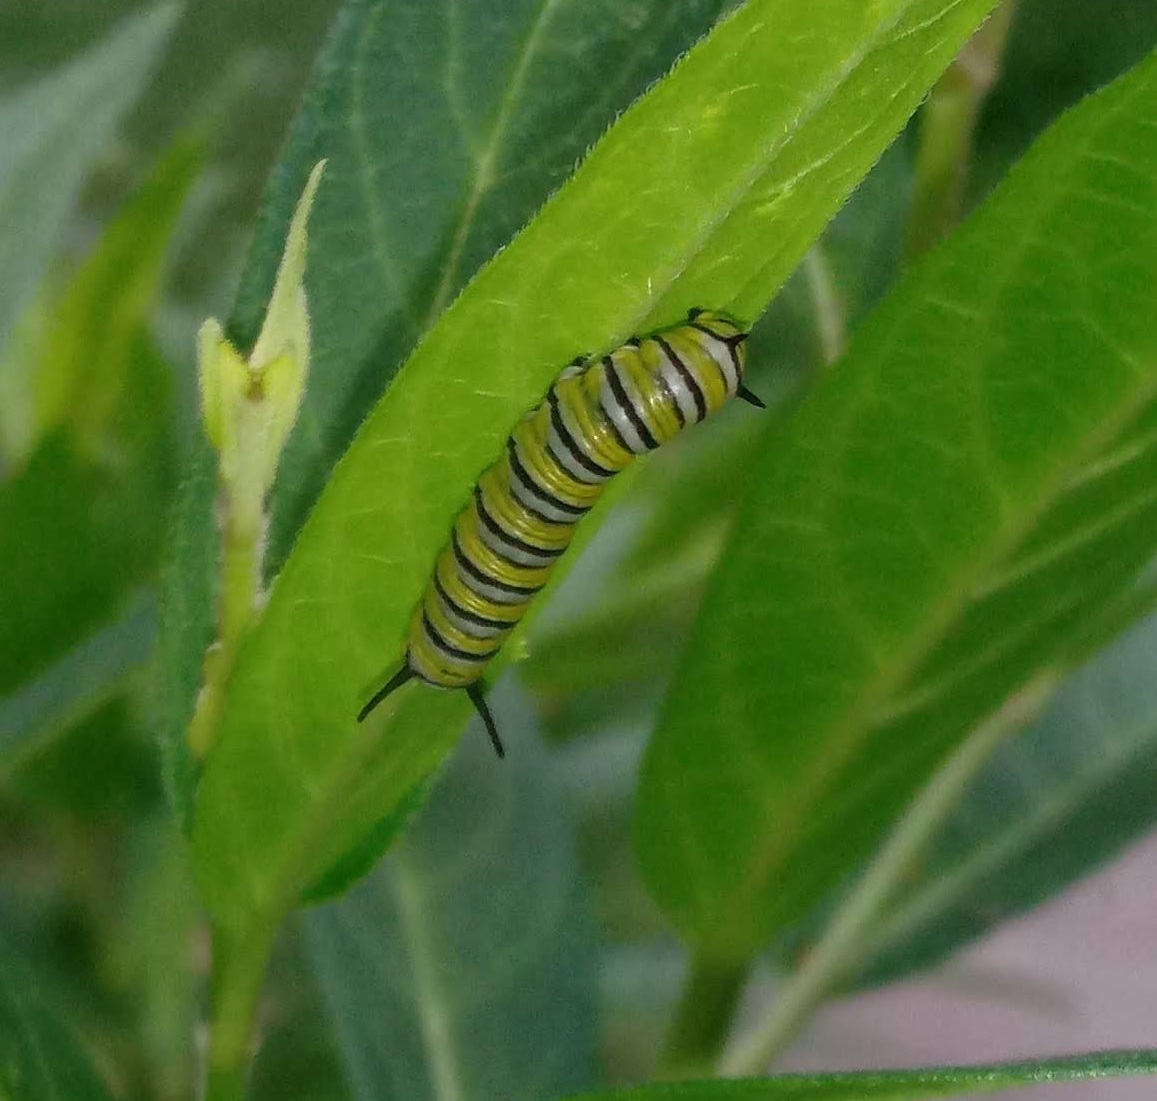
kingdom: Animalia
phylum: Arthropoda
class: Insecta
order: Lepidoptera
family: Nymphalidae
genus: Danaus
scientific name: Danaus plexippus
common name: Monarch
